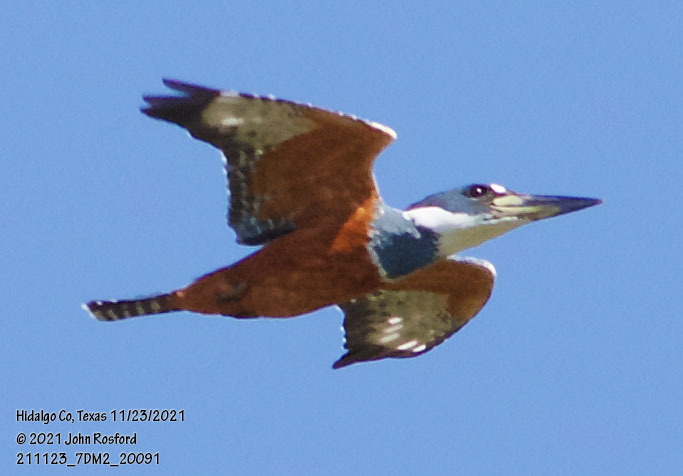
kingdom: Animalia
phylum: Chordata
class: Aves
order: Coraciiformes
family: Alcedinidae
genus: Megaceryle
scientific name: Megaceryle torquata
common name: Ringed kingfisher
